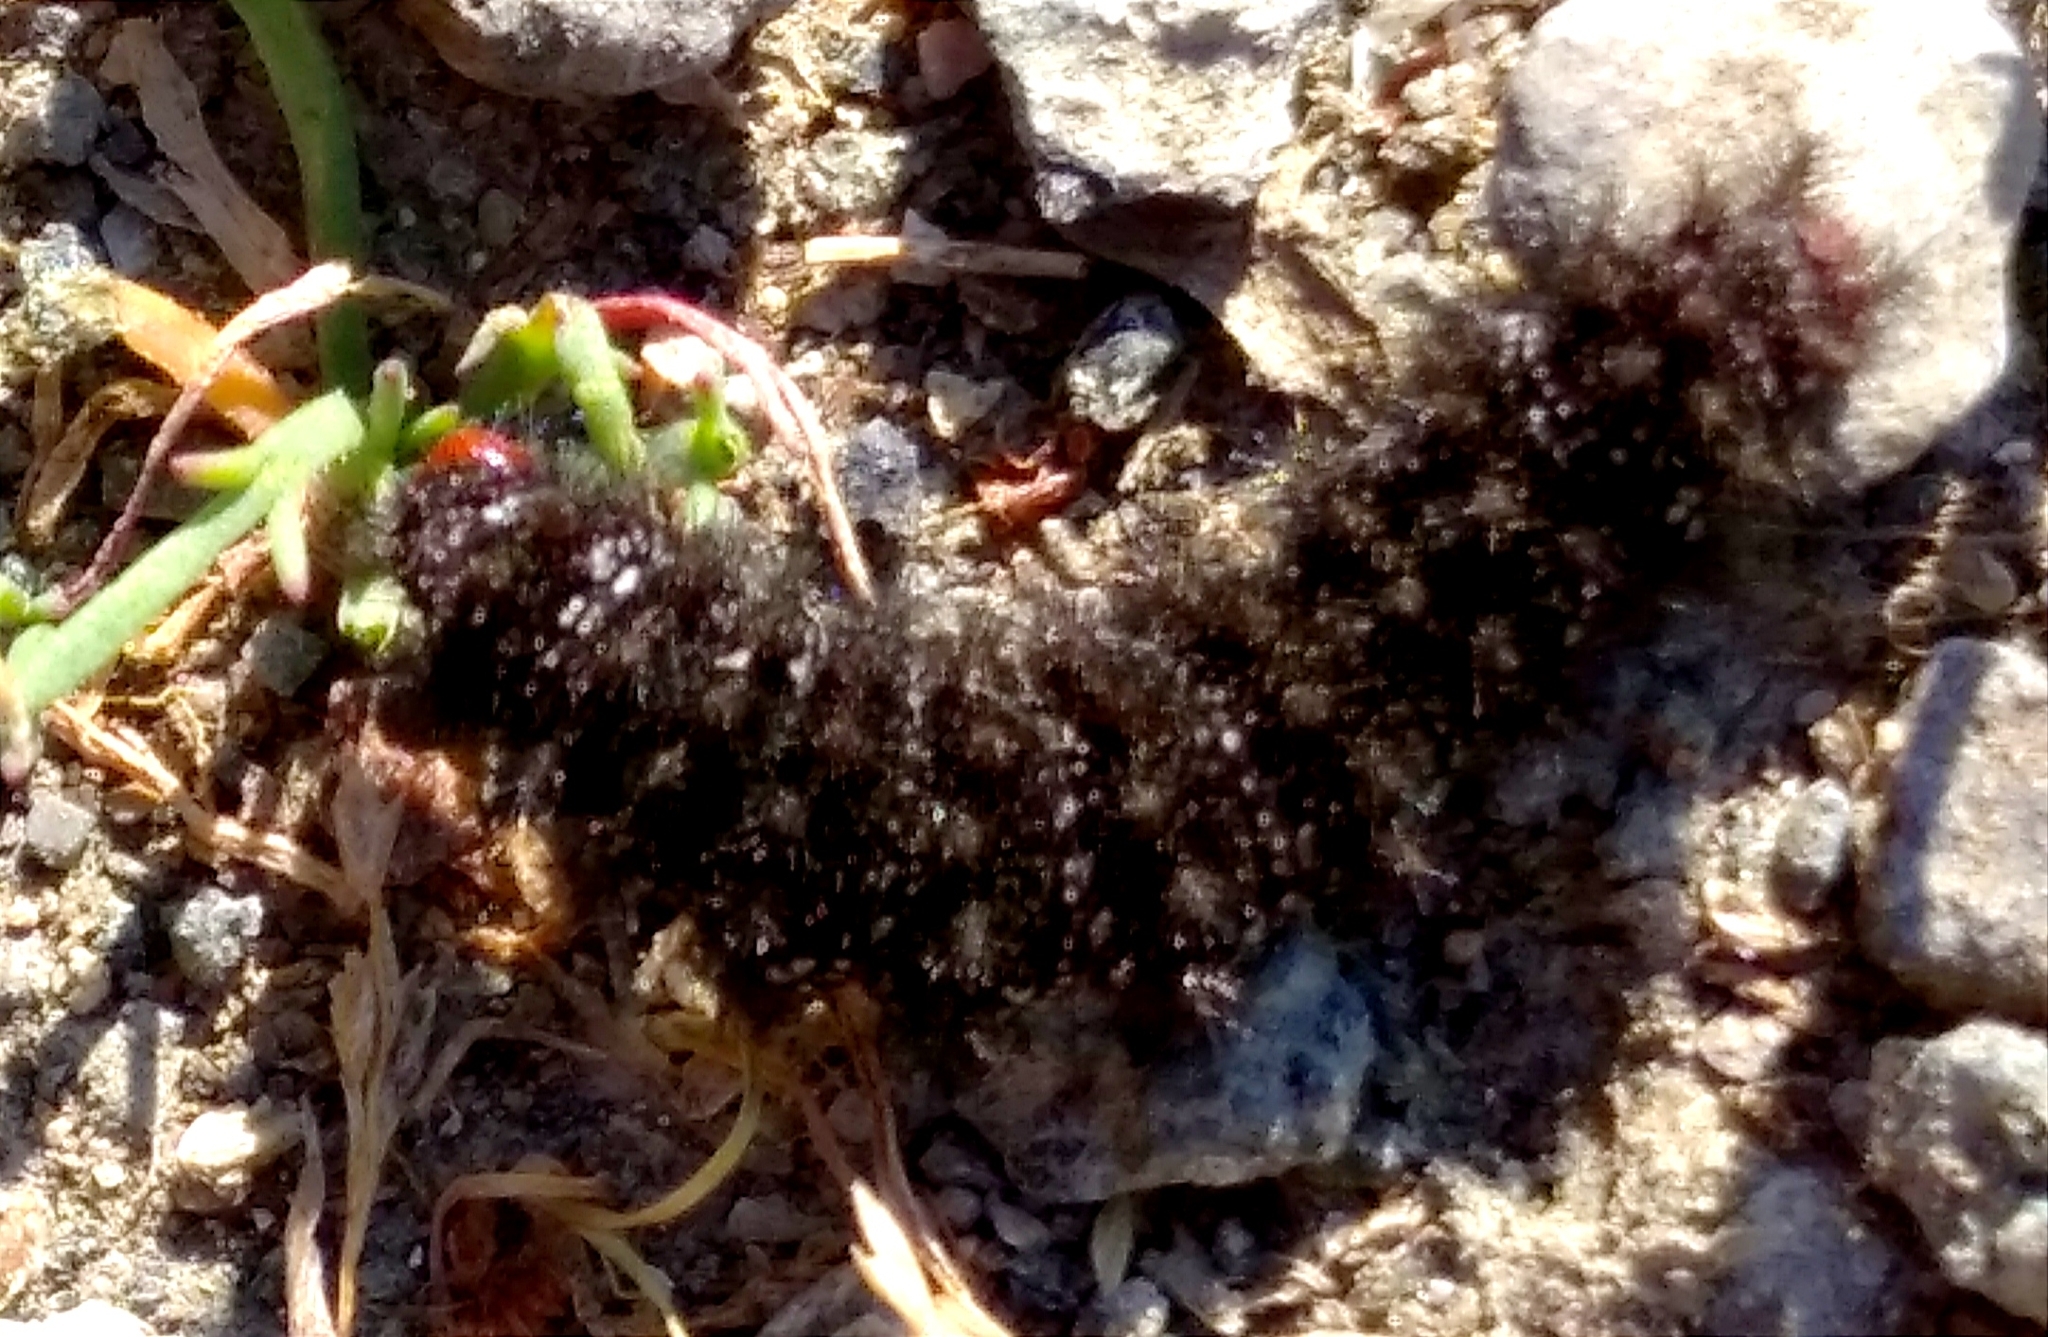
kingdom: Animalia
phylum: Arthropoda
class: Insecta
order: Lepidoptera
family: Nymphalidae
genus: Melitaea
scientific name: Melitaea cinxia
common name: Glanville fritillary
